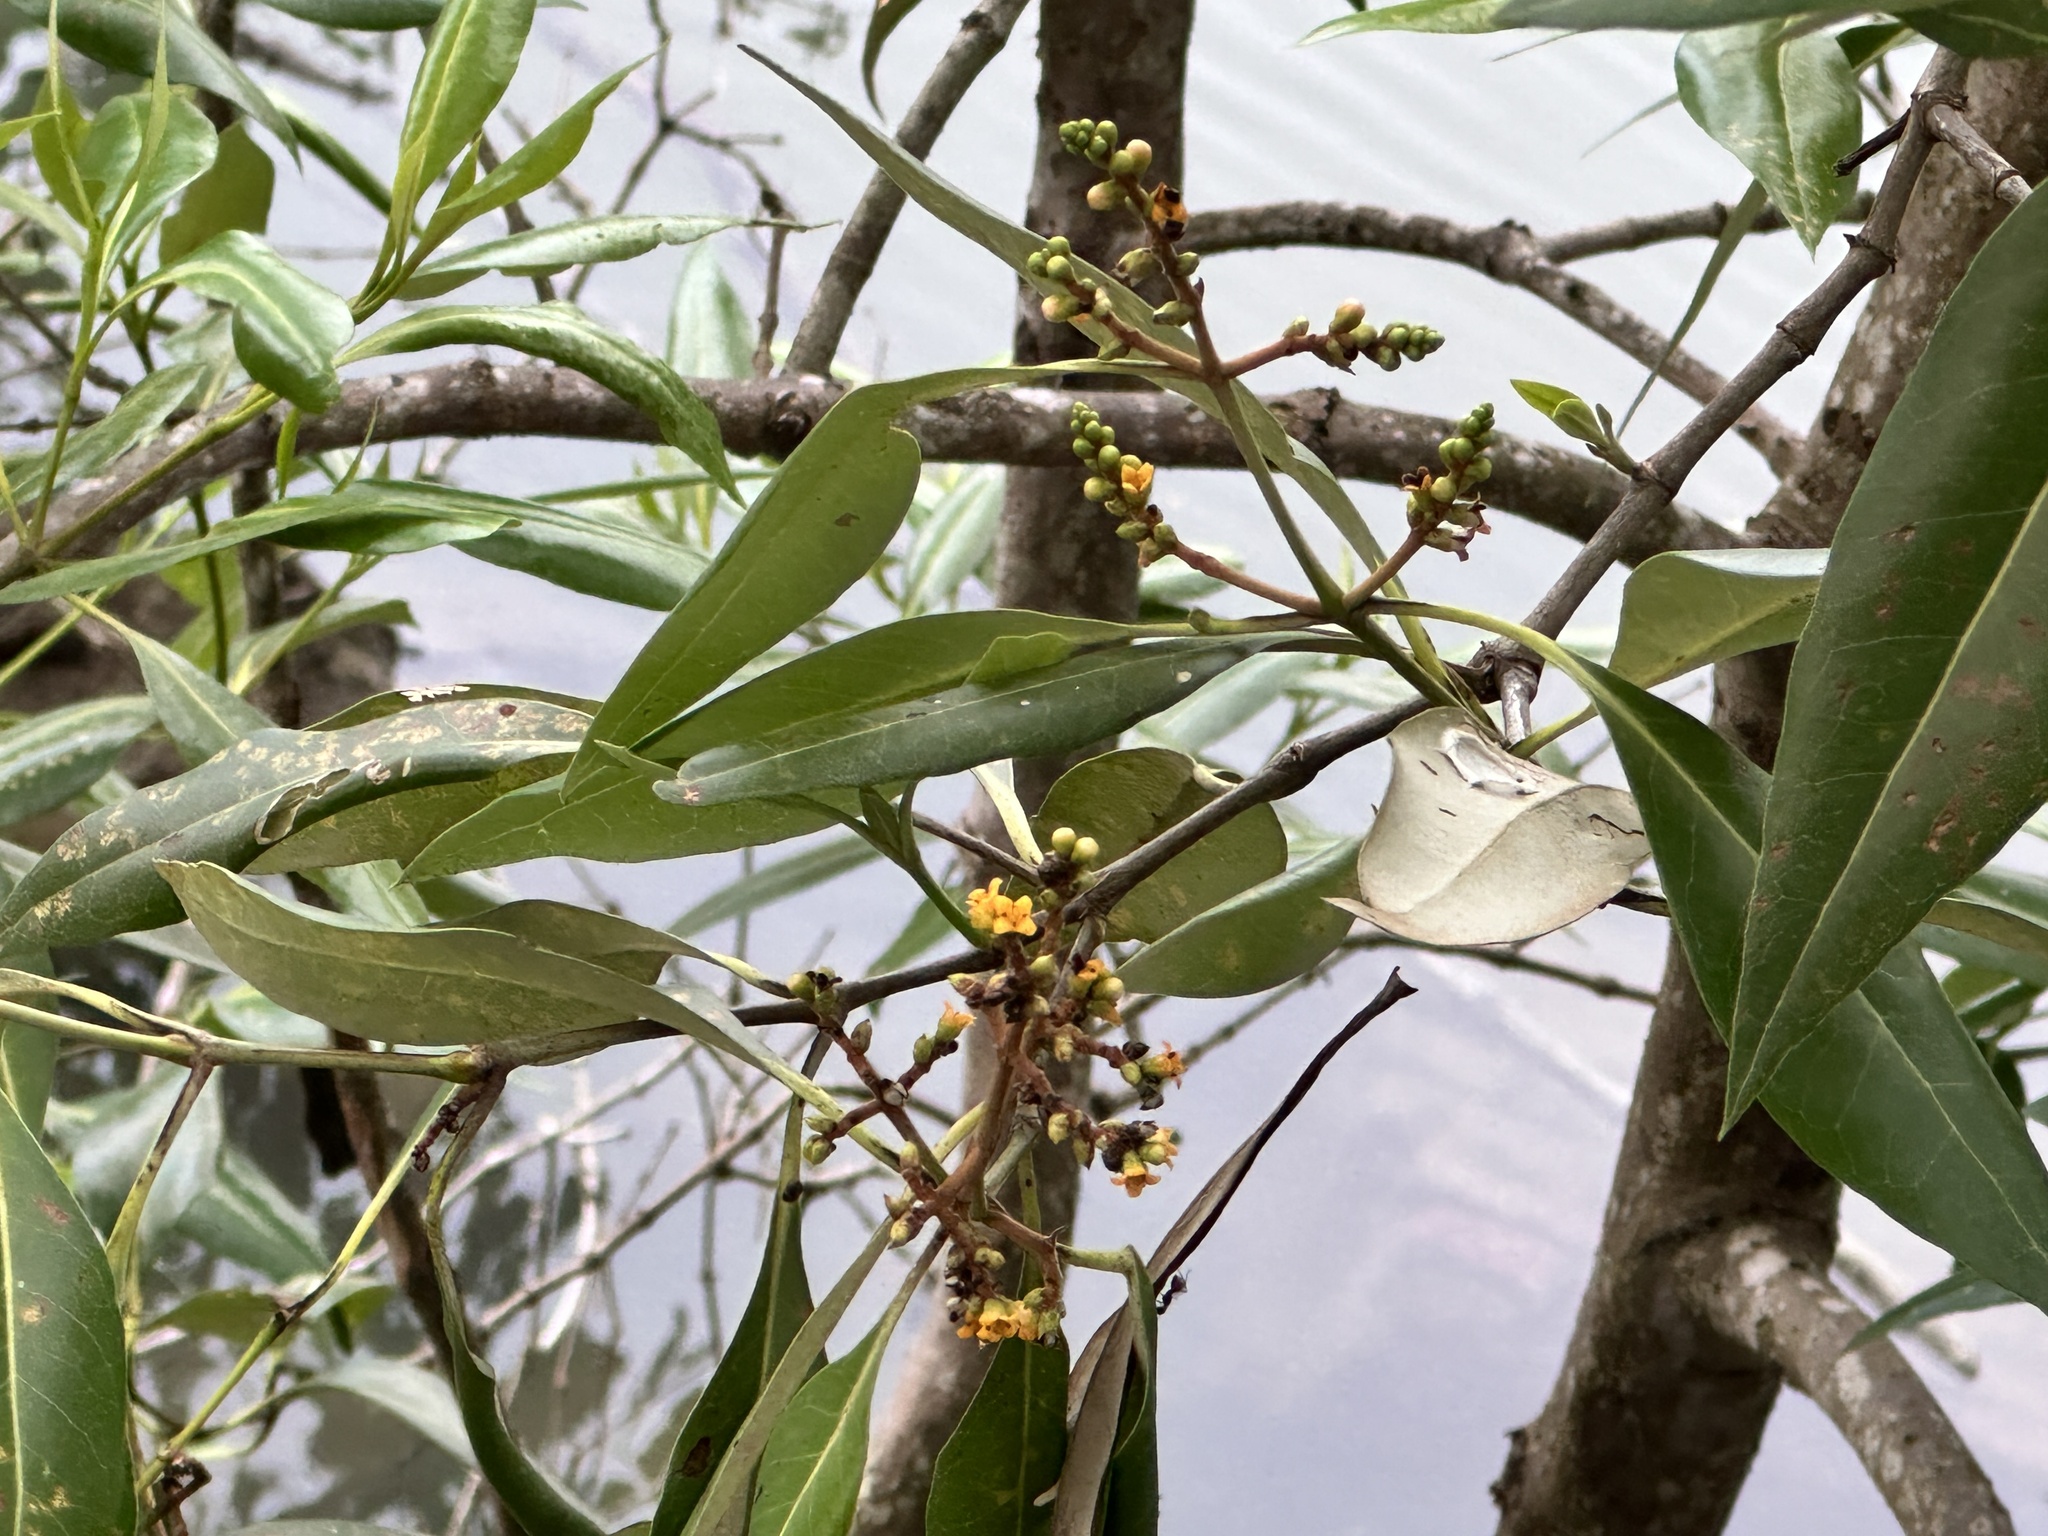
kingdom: Plantae
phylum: Tracheophyta
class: Magnoliopsida
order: Lamiales
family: Acanthaceae
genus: Avicennia
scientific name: Avicennia alba
